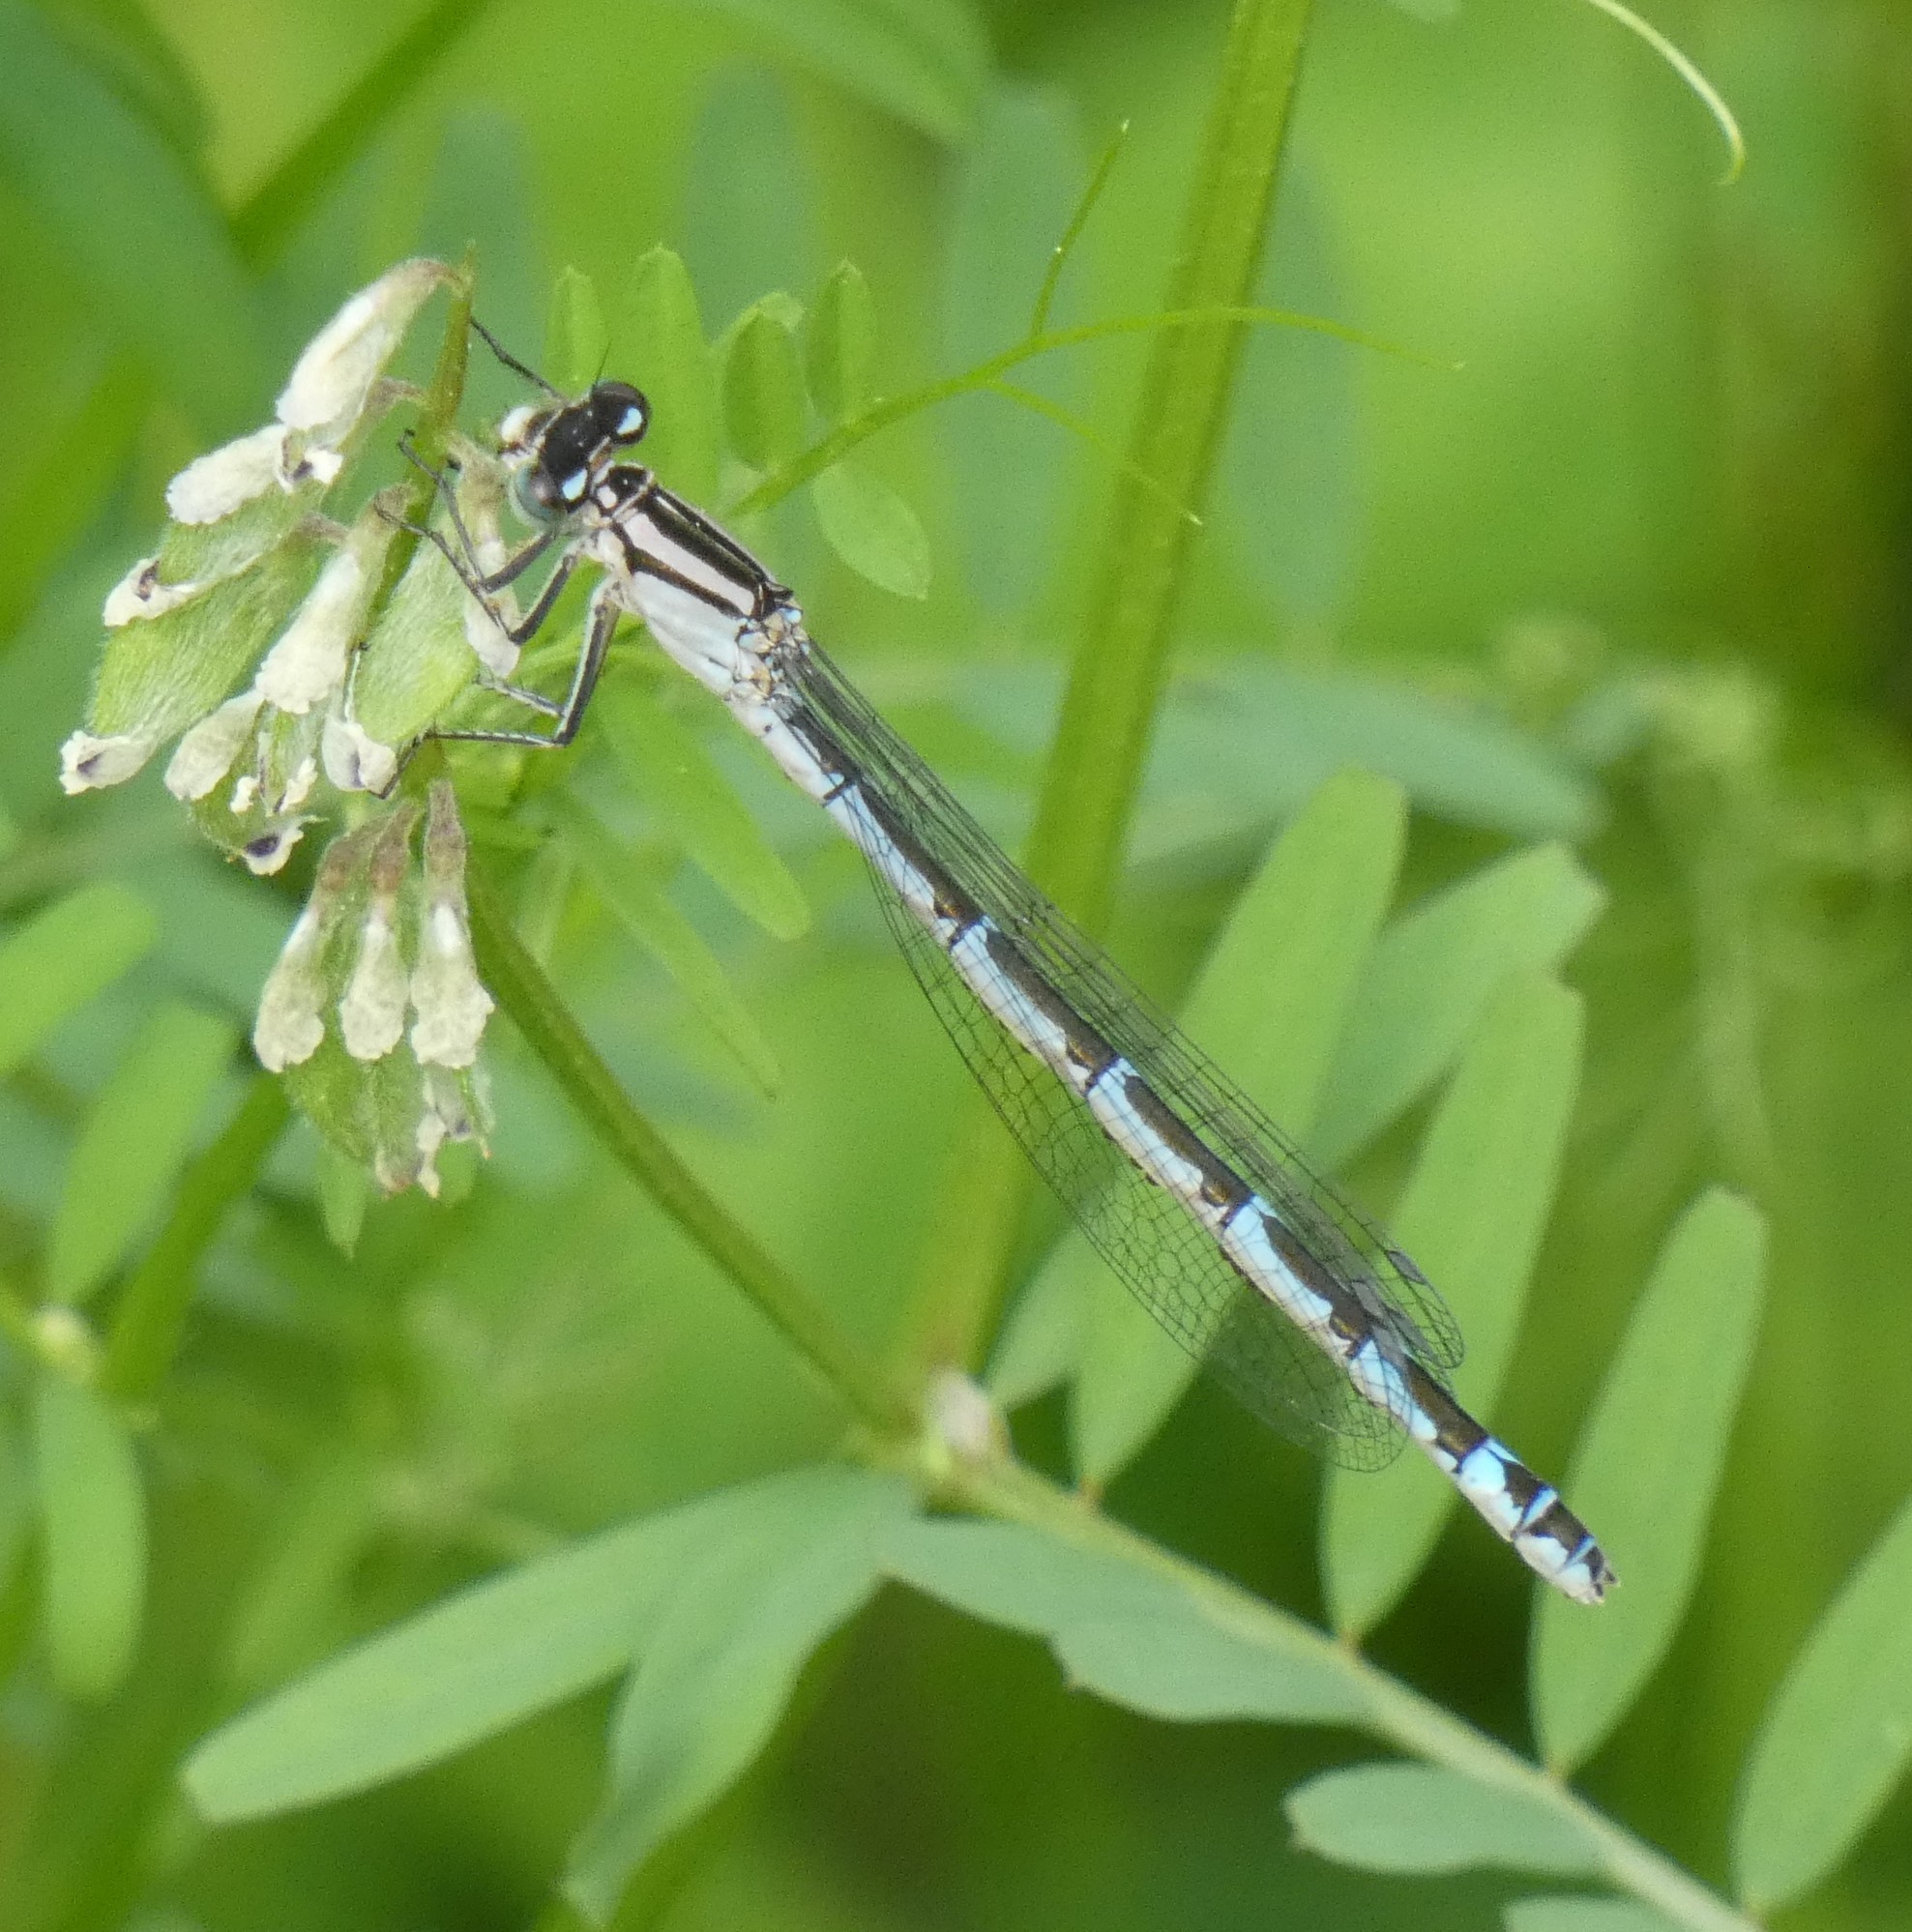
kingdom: Animalia
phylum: Arthropoda
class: Insecta
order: Odonata
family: Coenagrionidae
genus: Enallagma
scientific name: Enallagma cyathigerum
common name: Common blue damselfly
